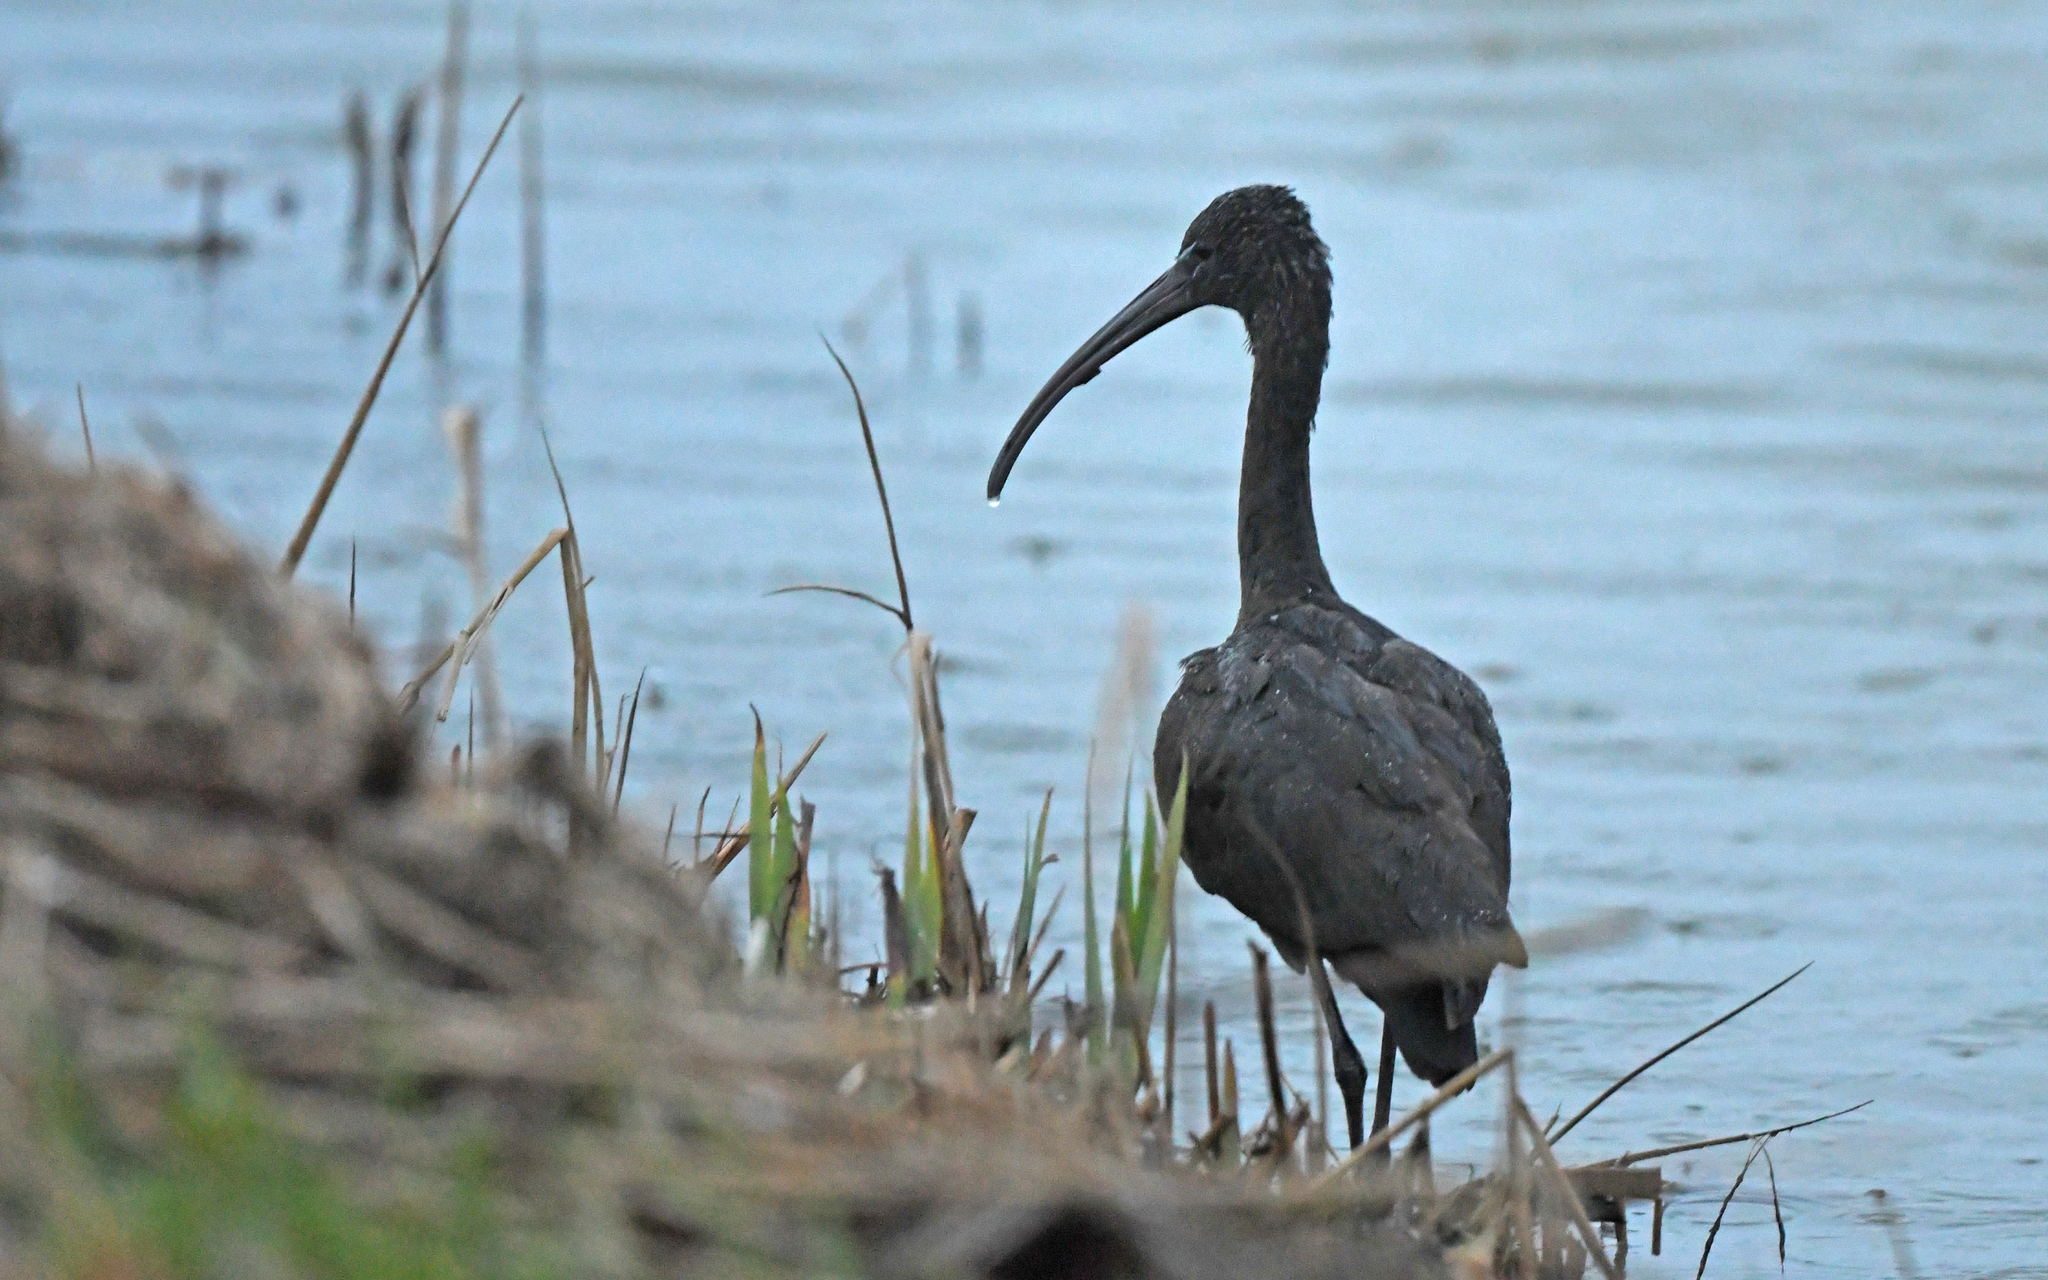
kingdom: Animalia
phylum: Chordata
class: Aves
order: Pelecaniformes
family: Threskiornithidae
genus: Plegadis
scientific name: Plegadis falcinellus
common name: Glossy ibis
